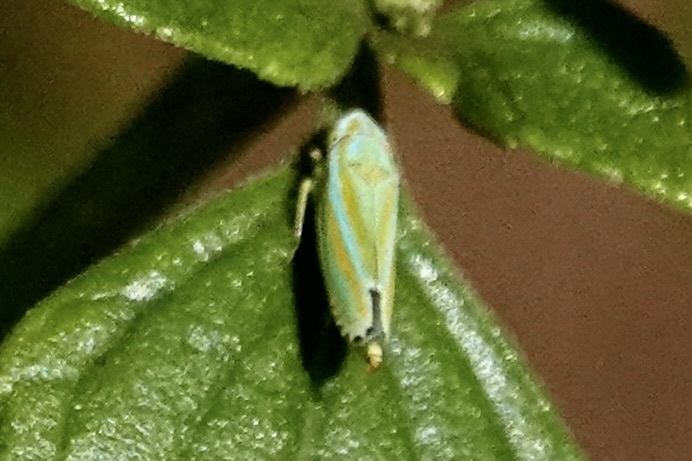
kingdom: Animalia
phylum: Arthropoda
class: Insecta
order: Hemiptera
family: Cicadellidae
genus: Graphocephala
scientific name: Graphocephala versuta
